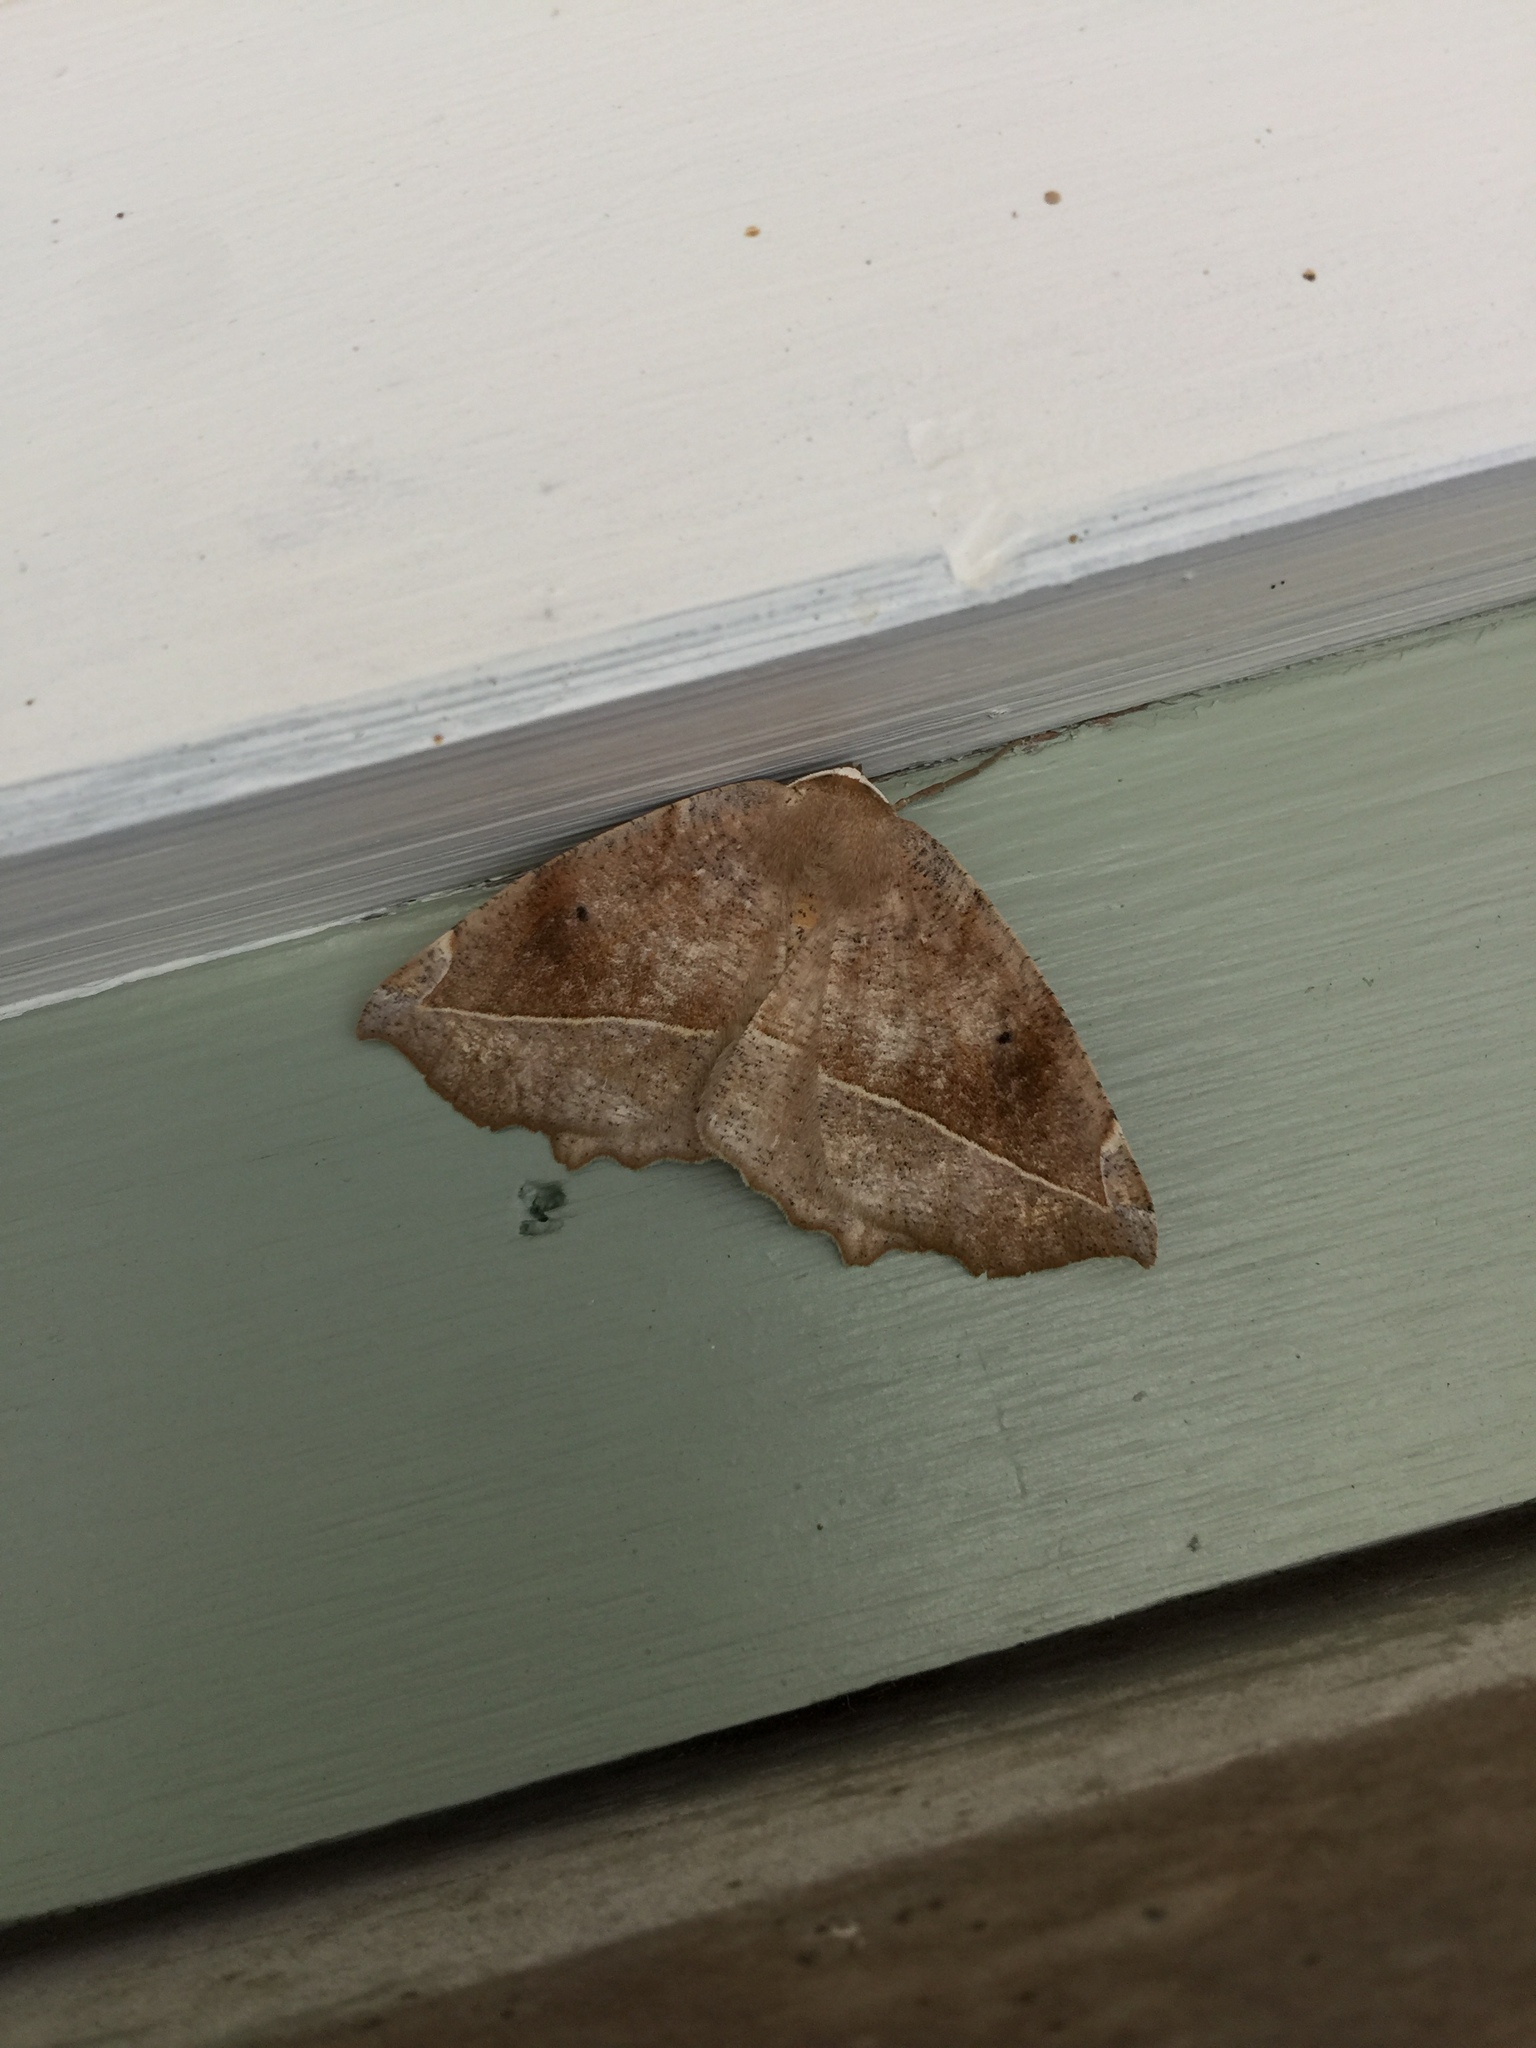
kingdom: Animalia
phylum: Arthropoda
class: Insecta
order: Lepidoptera
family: Geometridae
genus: Eutrapela
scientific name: Eutrapela clemataria
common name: Curved-toothed geometer
